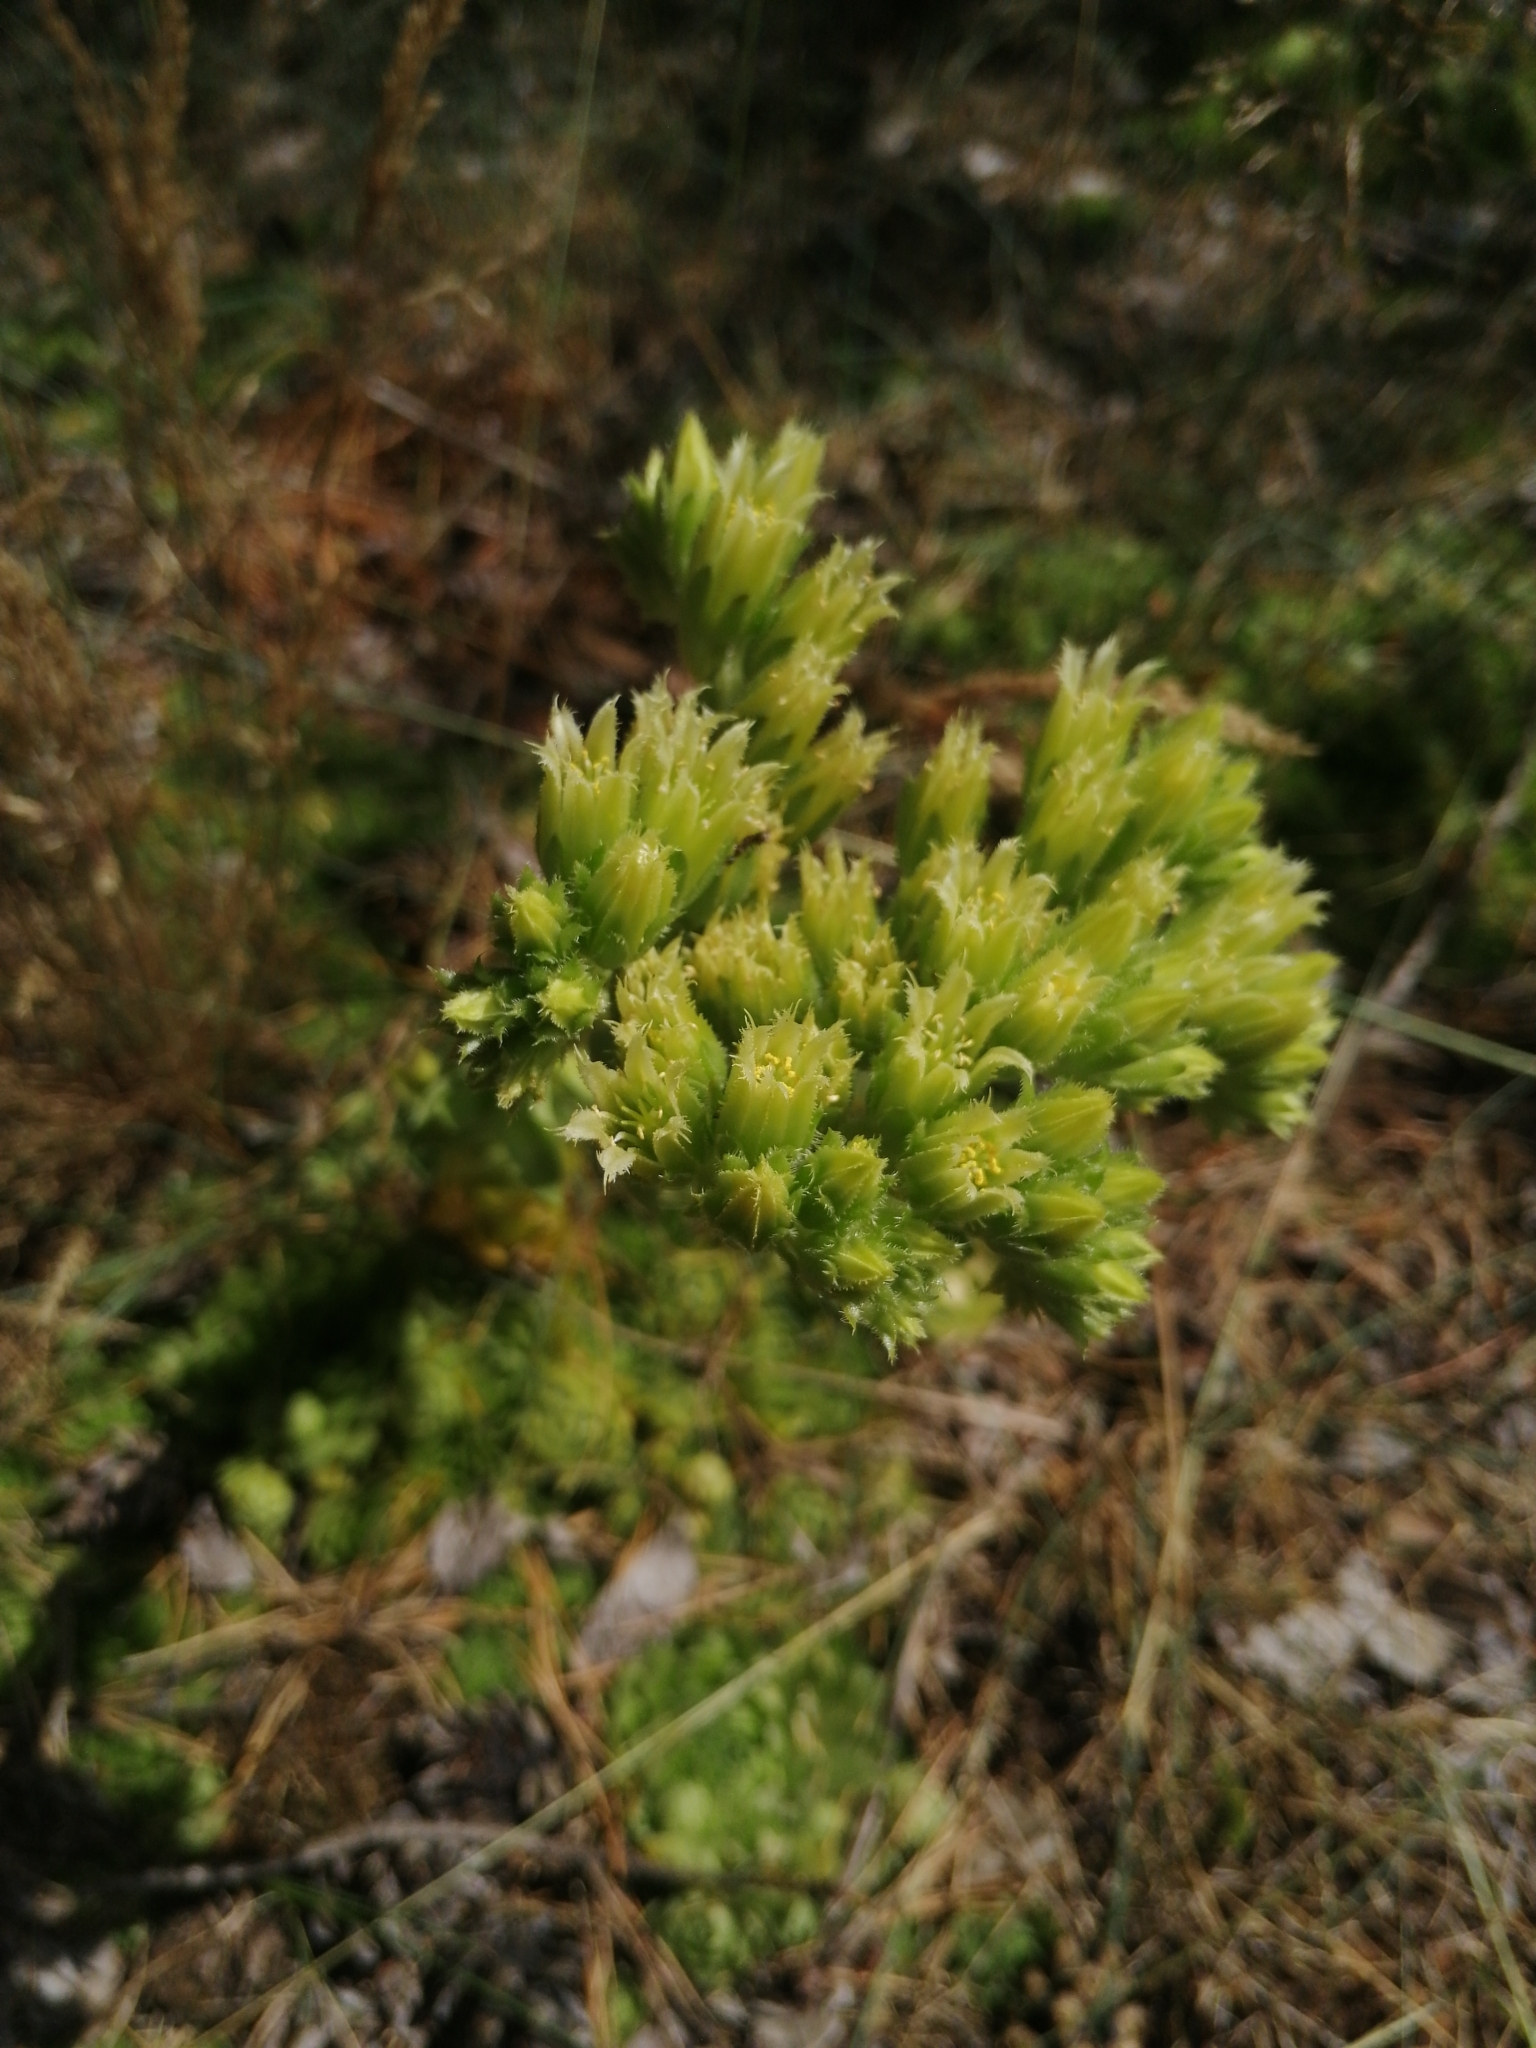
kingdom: Plantae
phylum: Tracheophyta
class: Magnoliopsida
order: Saxifragales
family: Crassulaceae
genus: Sempervivum
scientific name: Sempervivum globiferum
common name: Rolling hen-and-chicks
